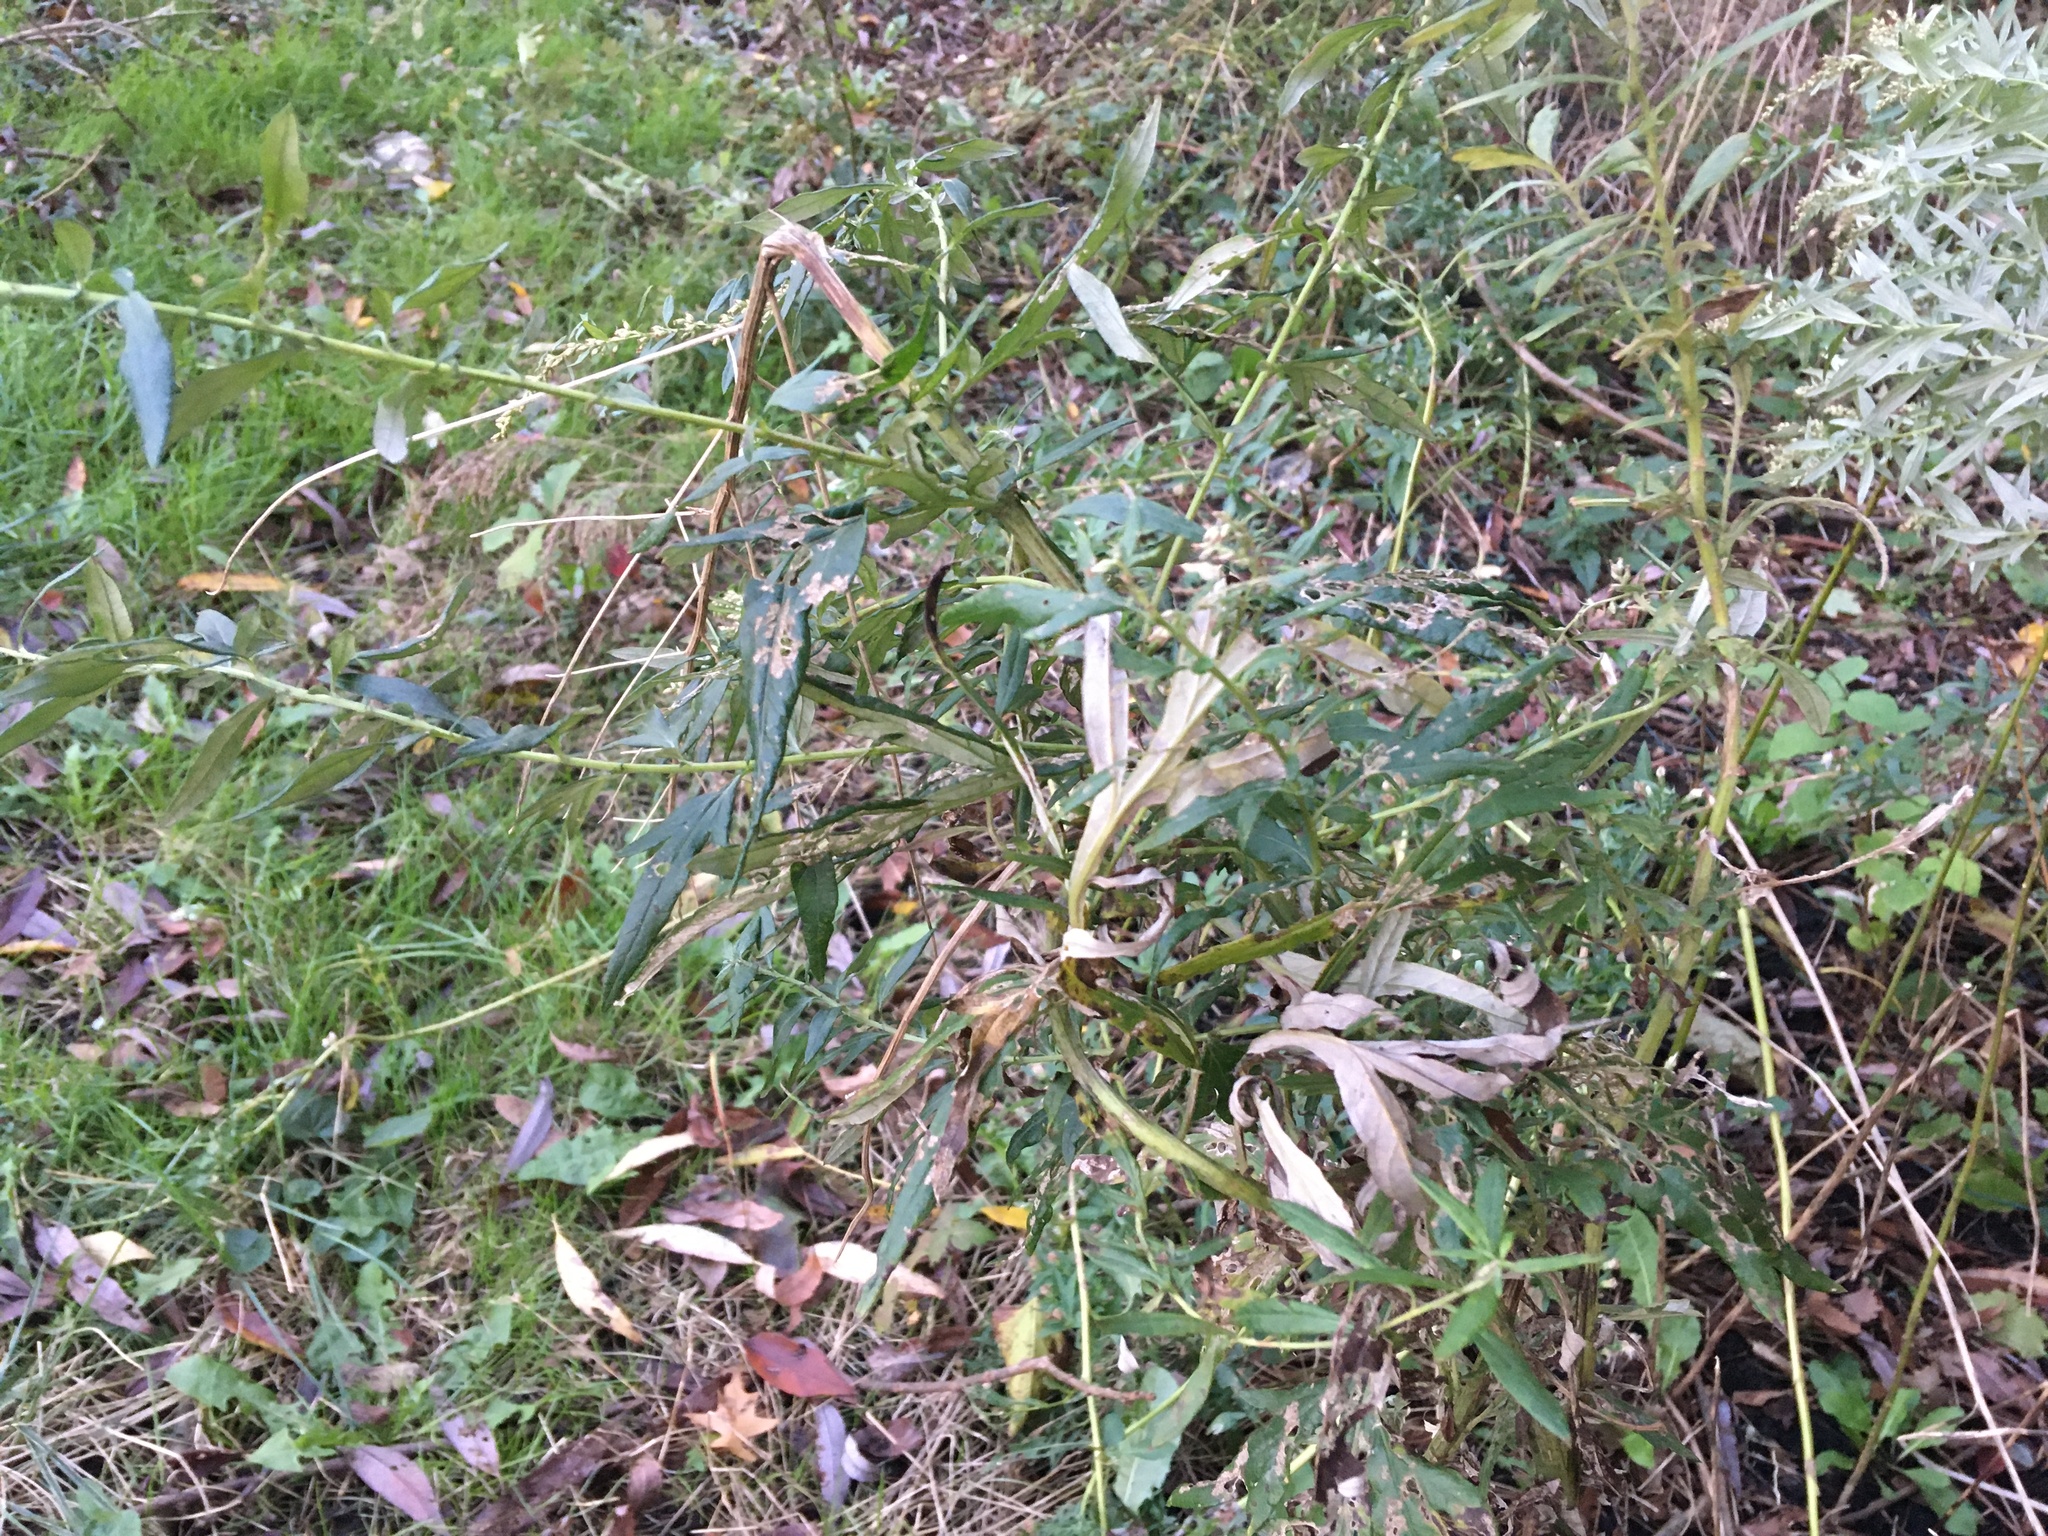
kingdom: Plantae
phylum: Tracheophyta
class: Magnoliopsida
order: Asterales
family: Asteraceae
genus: Artemisia
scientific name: Artemisia vulgaris
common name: Mugwort
